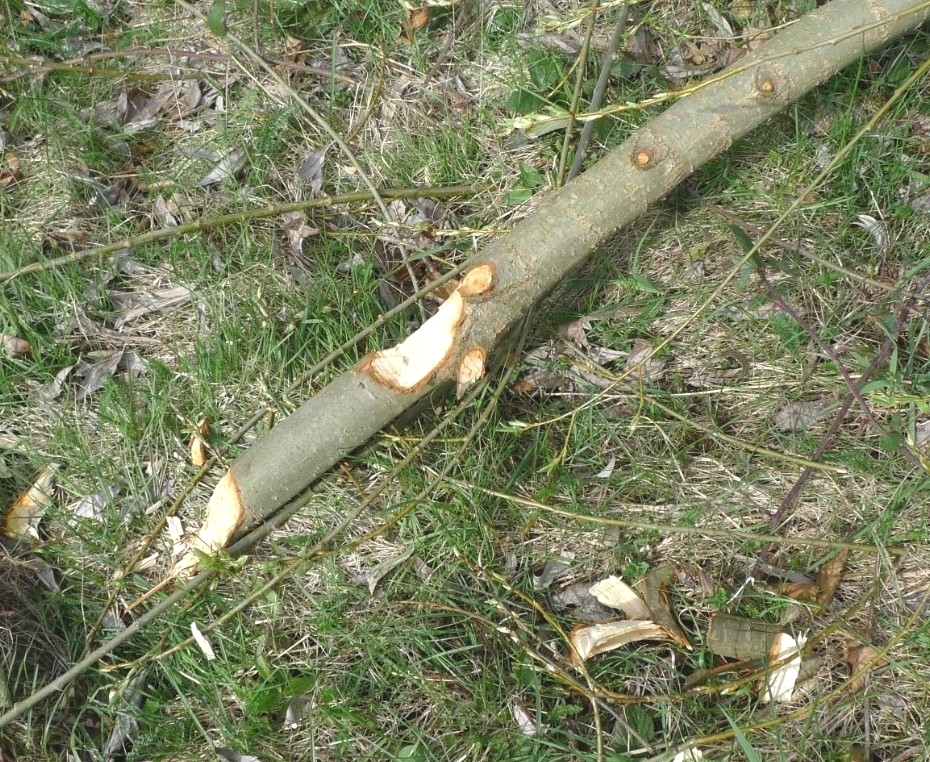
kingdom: Animalia
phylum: Chordata
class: Mammalia
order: Rodentia
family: Castoridae
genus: Castor
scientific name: Castor fiber
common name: Eurasian beaver
